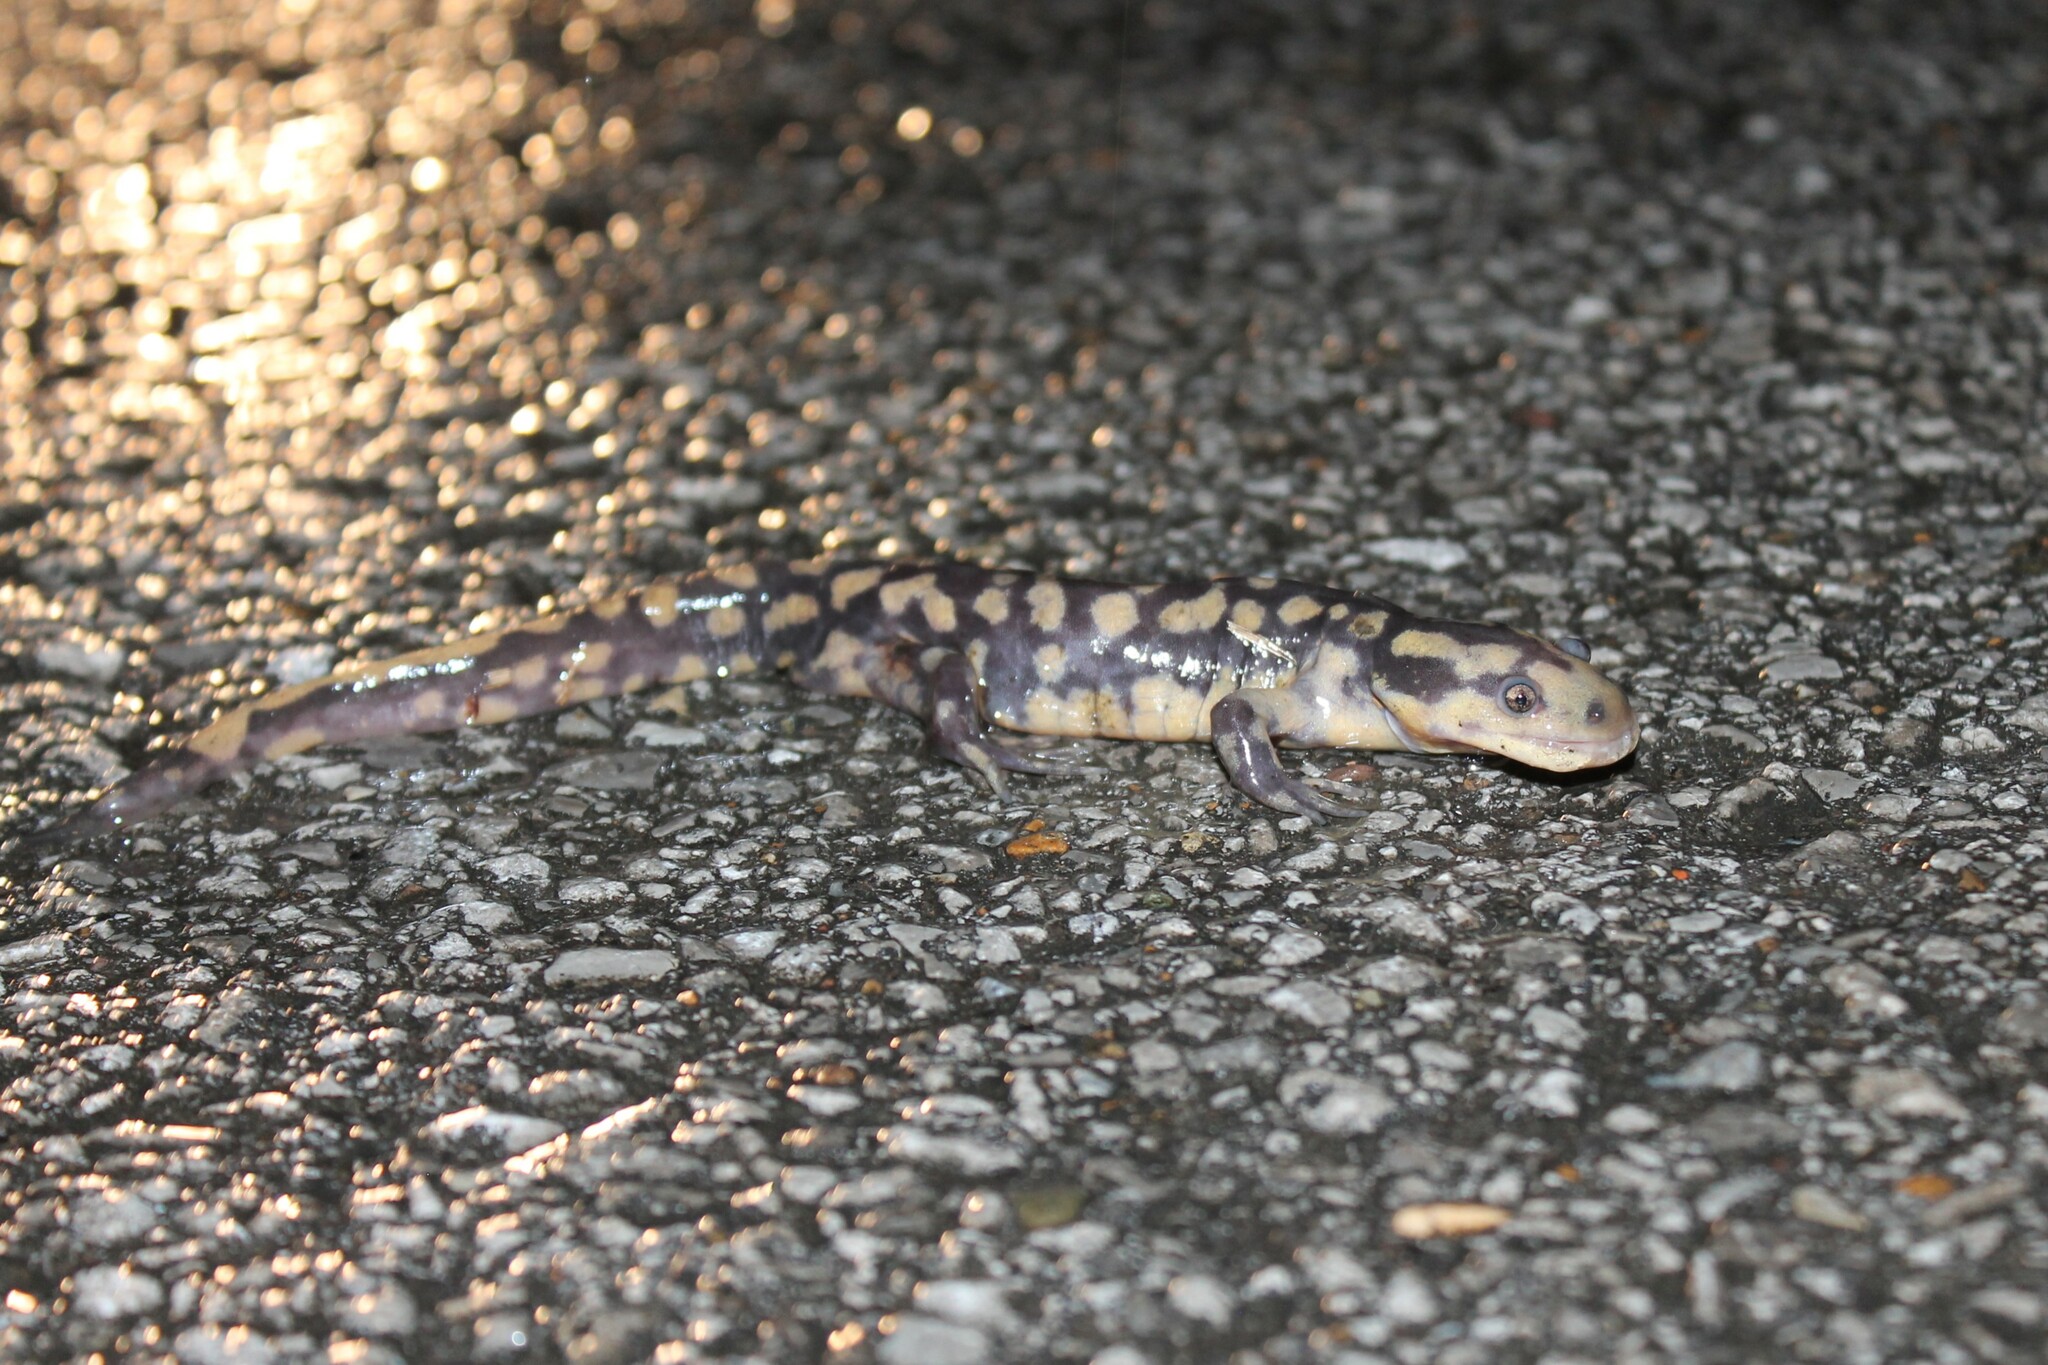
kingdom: Animalia
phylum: Chordata
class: Amphibia
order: Caudata
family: Ambystomatidae
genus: Ambystoma
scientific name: Ambystoma tigrinum
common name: Tiger salamander
